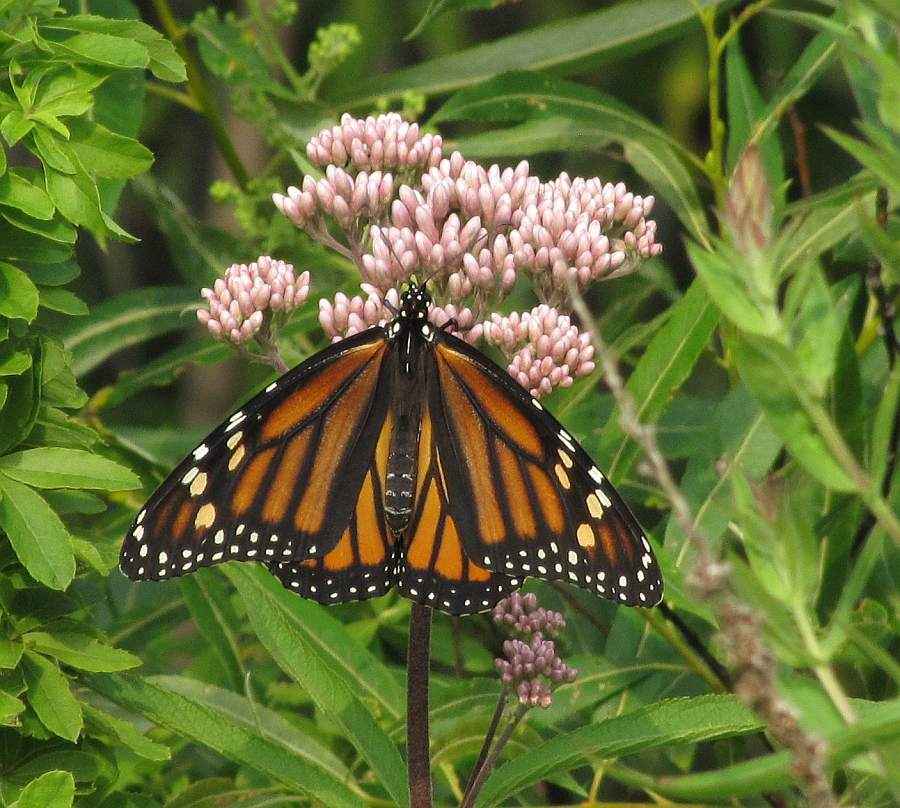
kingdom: Animalia
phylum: Arthropoda
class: Insecta
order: Lepidoptera
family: Nymphalidae
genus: Danaus
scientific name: Danaus plexippus
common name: Monarch
